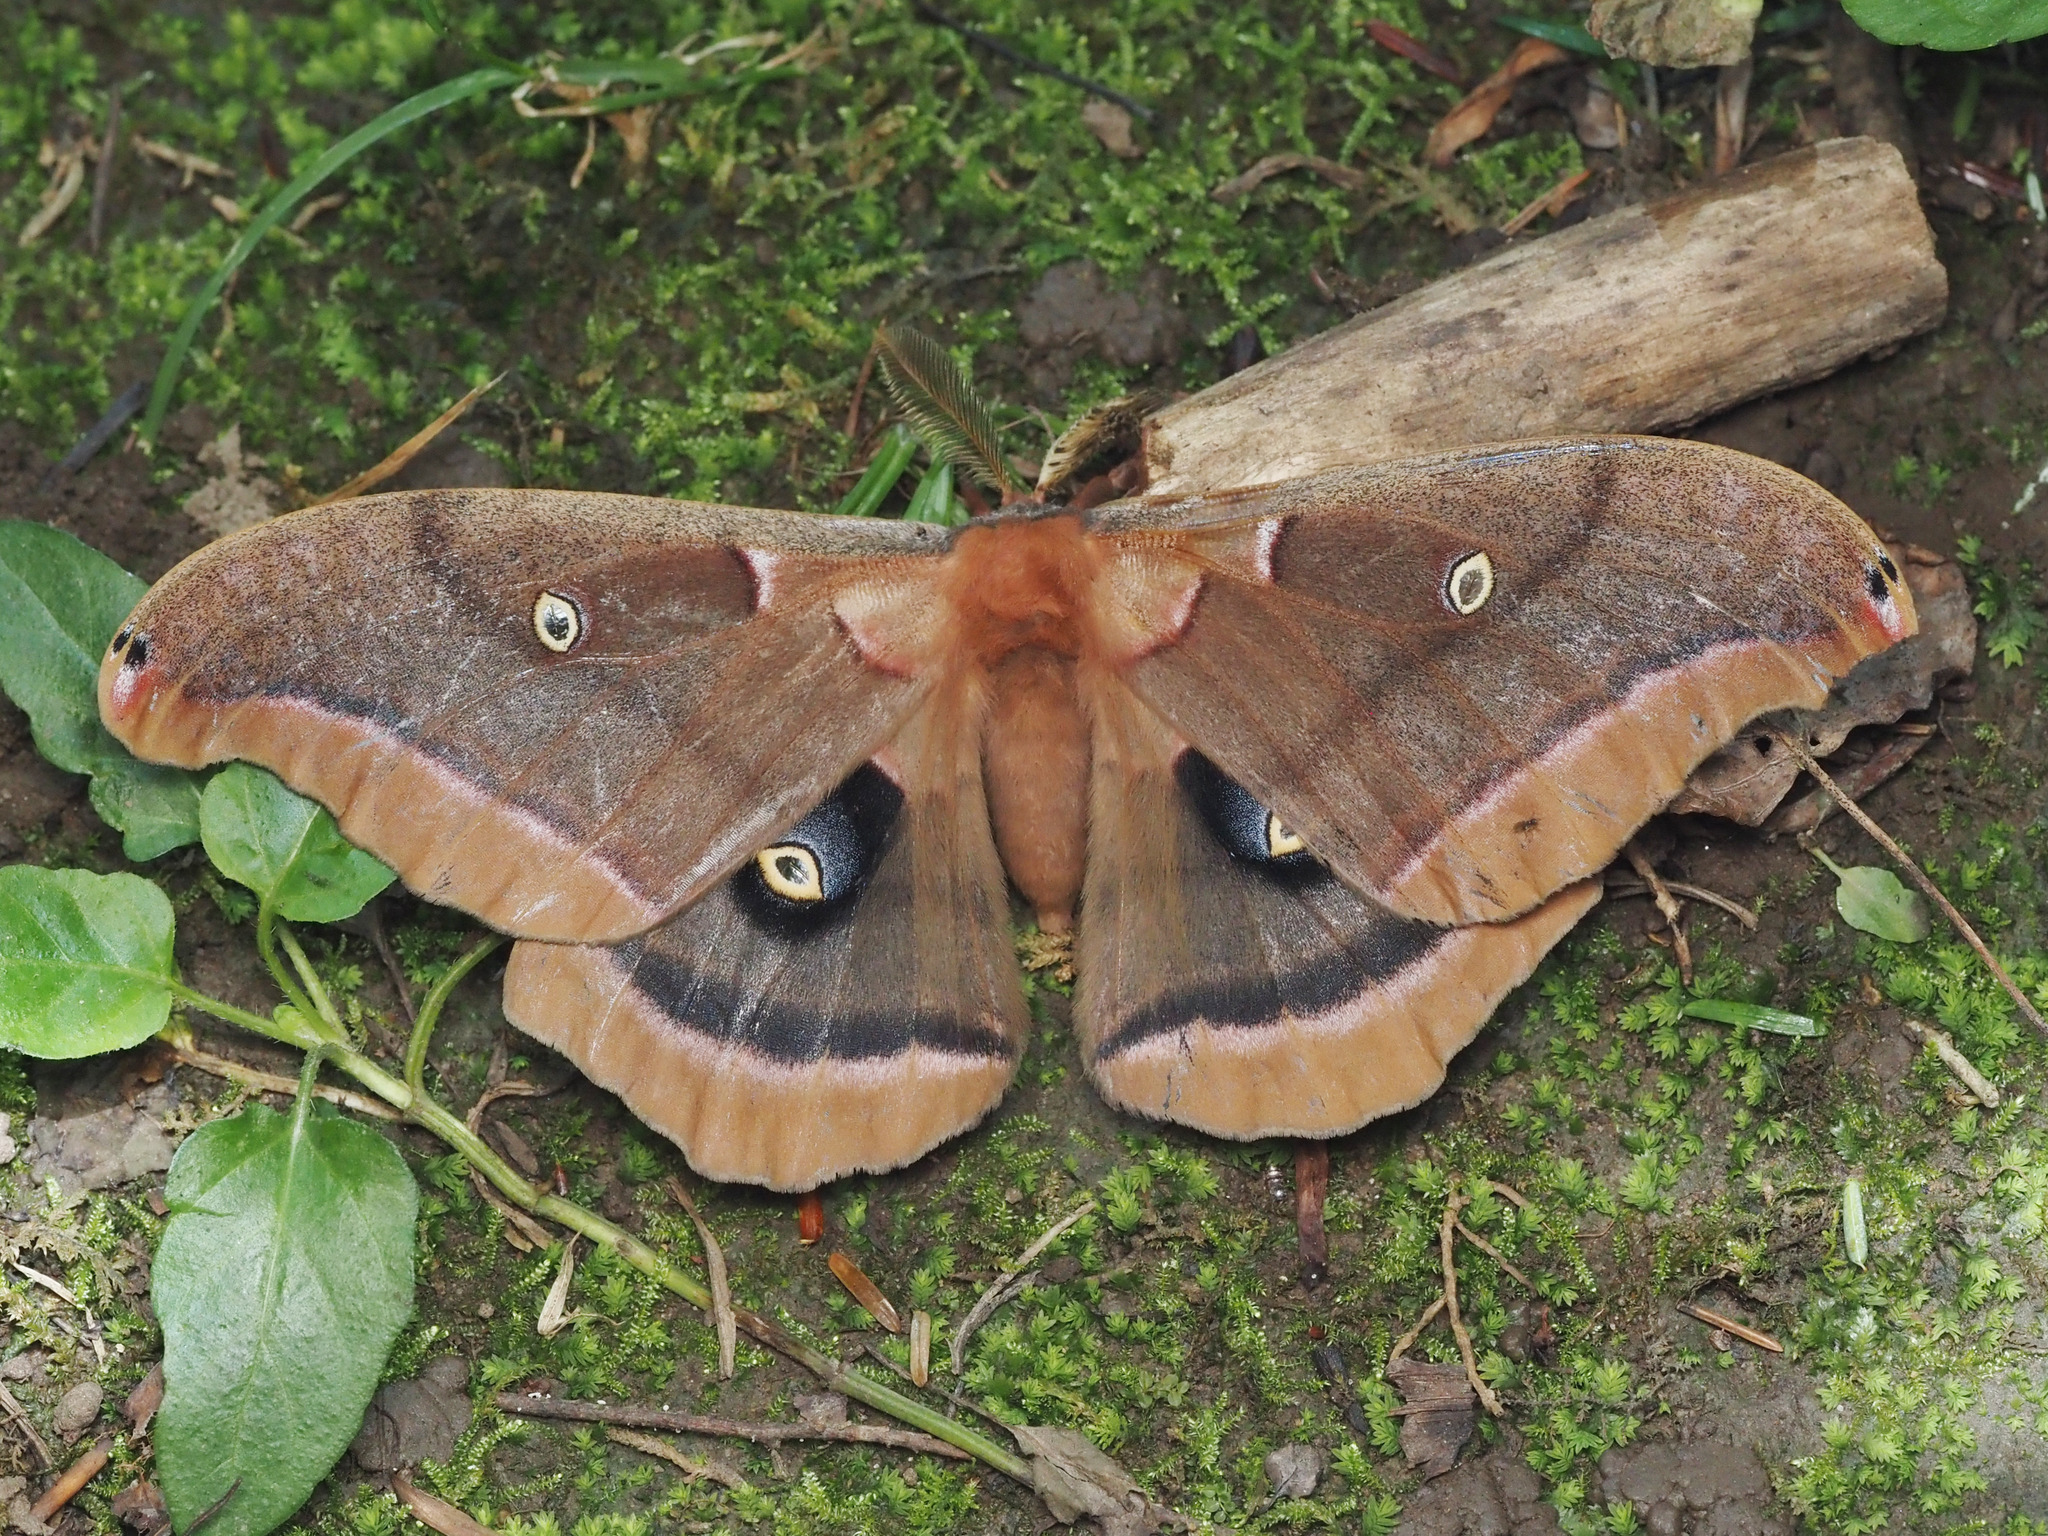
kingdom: Animalia
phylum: Arthropoda
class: Insecta
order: Lepidoptera
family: Saturniidae
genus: Antheraea
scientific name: Antheraea polyphemus
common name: Polyphemus moth
